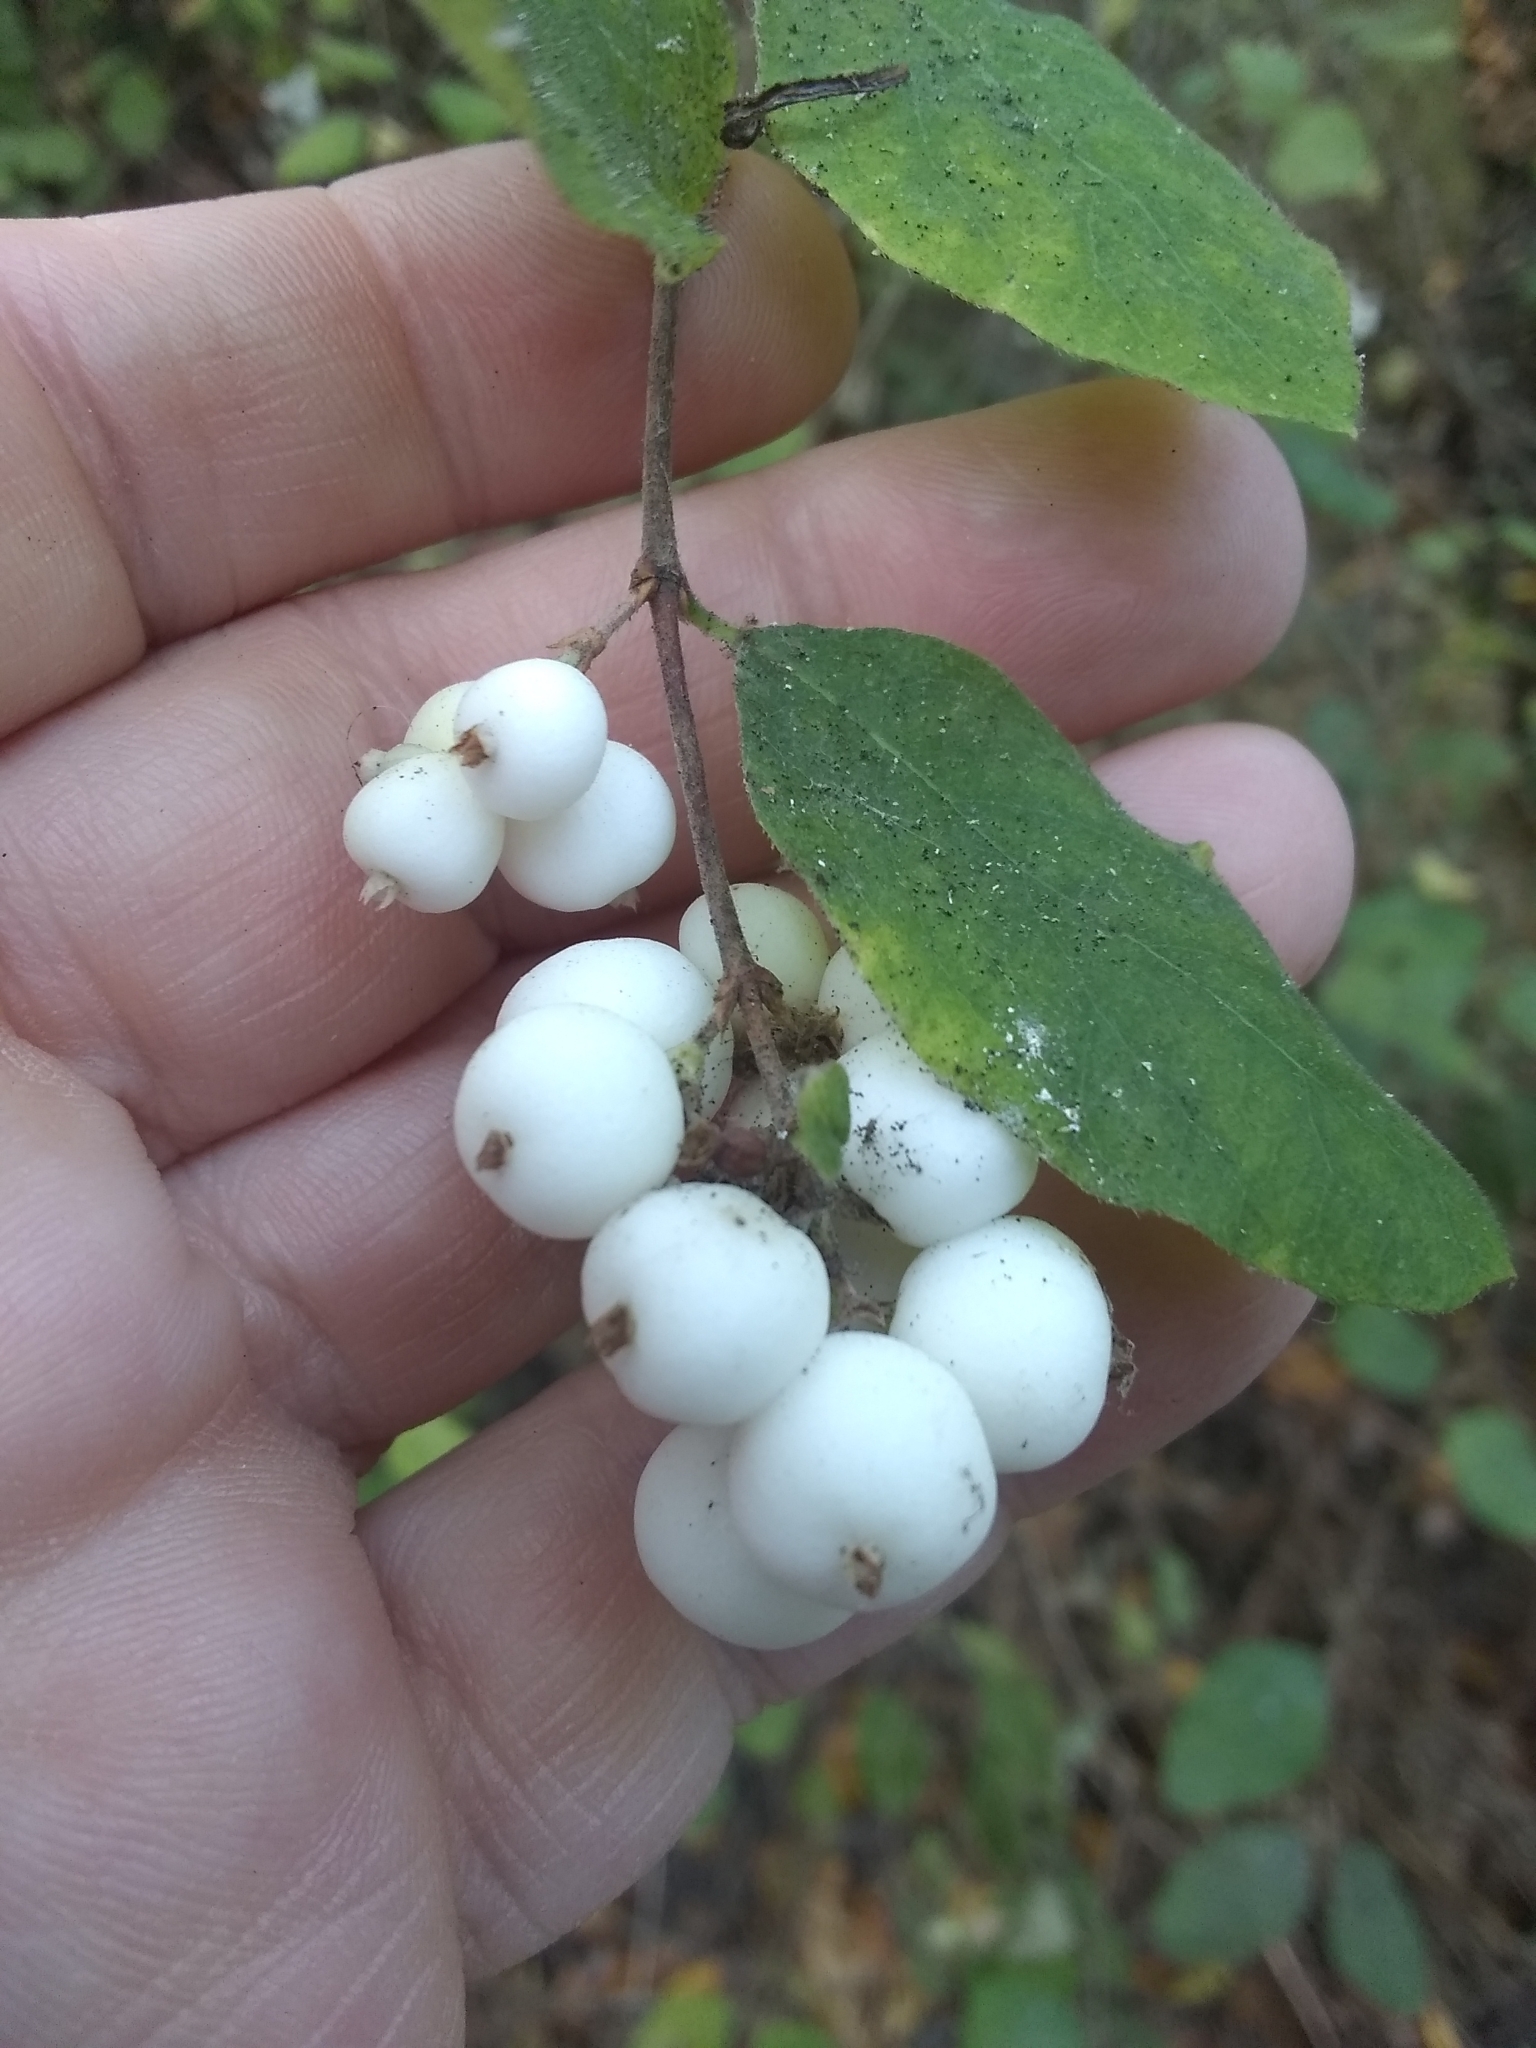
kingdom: Plantae
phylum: Tracheophyta
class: Magnoliopsida
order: Dipsacales
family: Caprifoliaceae
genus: Symphoricarpos
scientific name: Symphoricarpos albus
